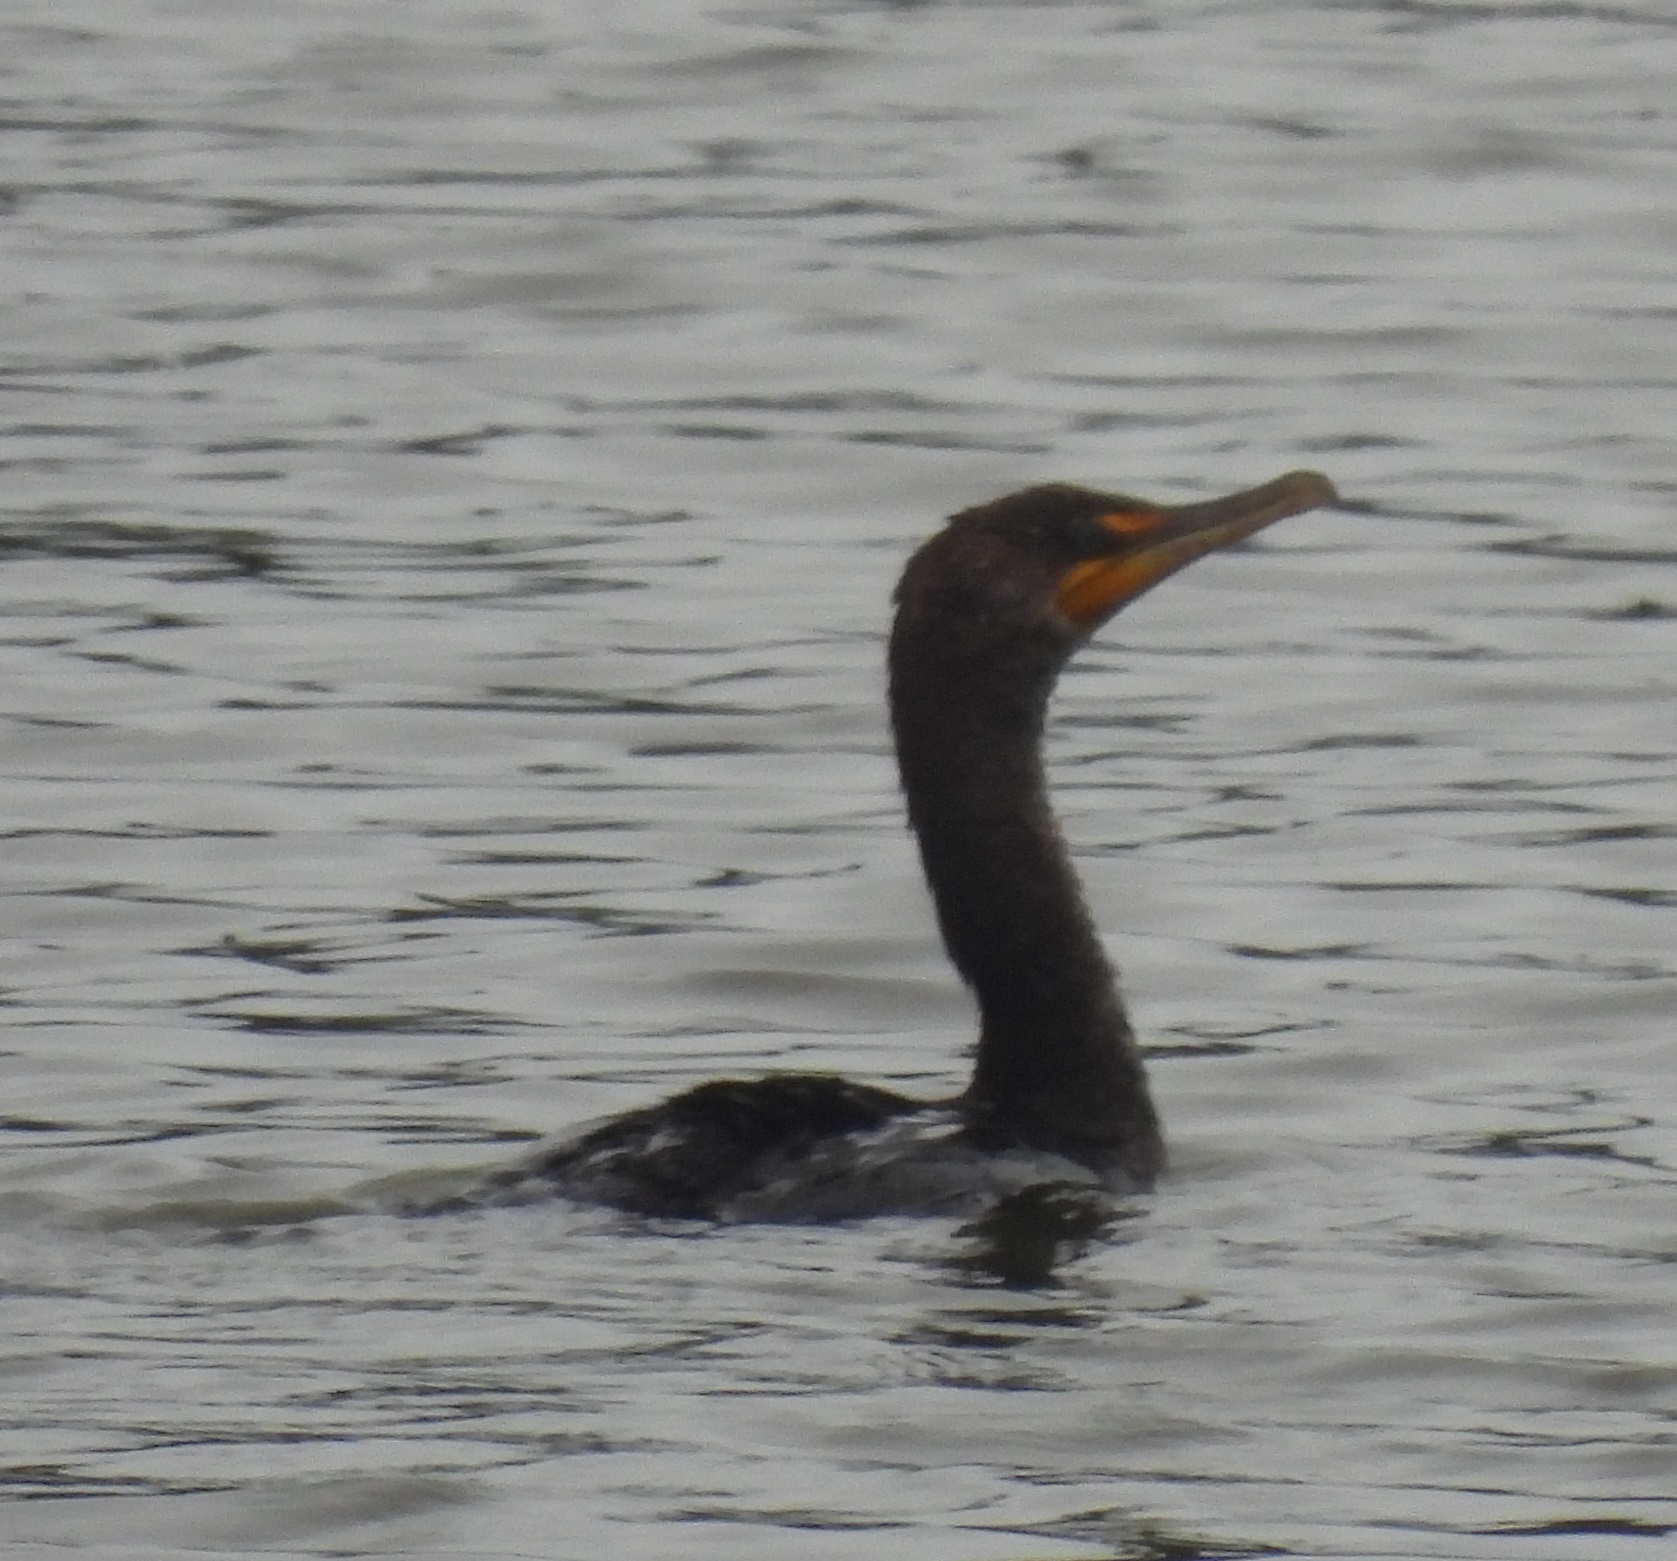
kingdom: Animalia
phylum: Chordata
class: Aves
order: Suliformes
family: Phalacrocoracidae
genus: Phalacrocorax
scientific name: Phalacrocorax auritus
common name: Double-crested cormorant
